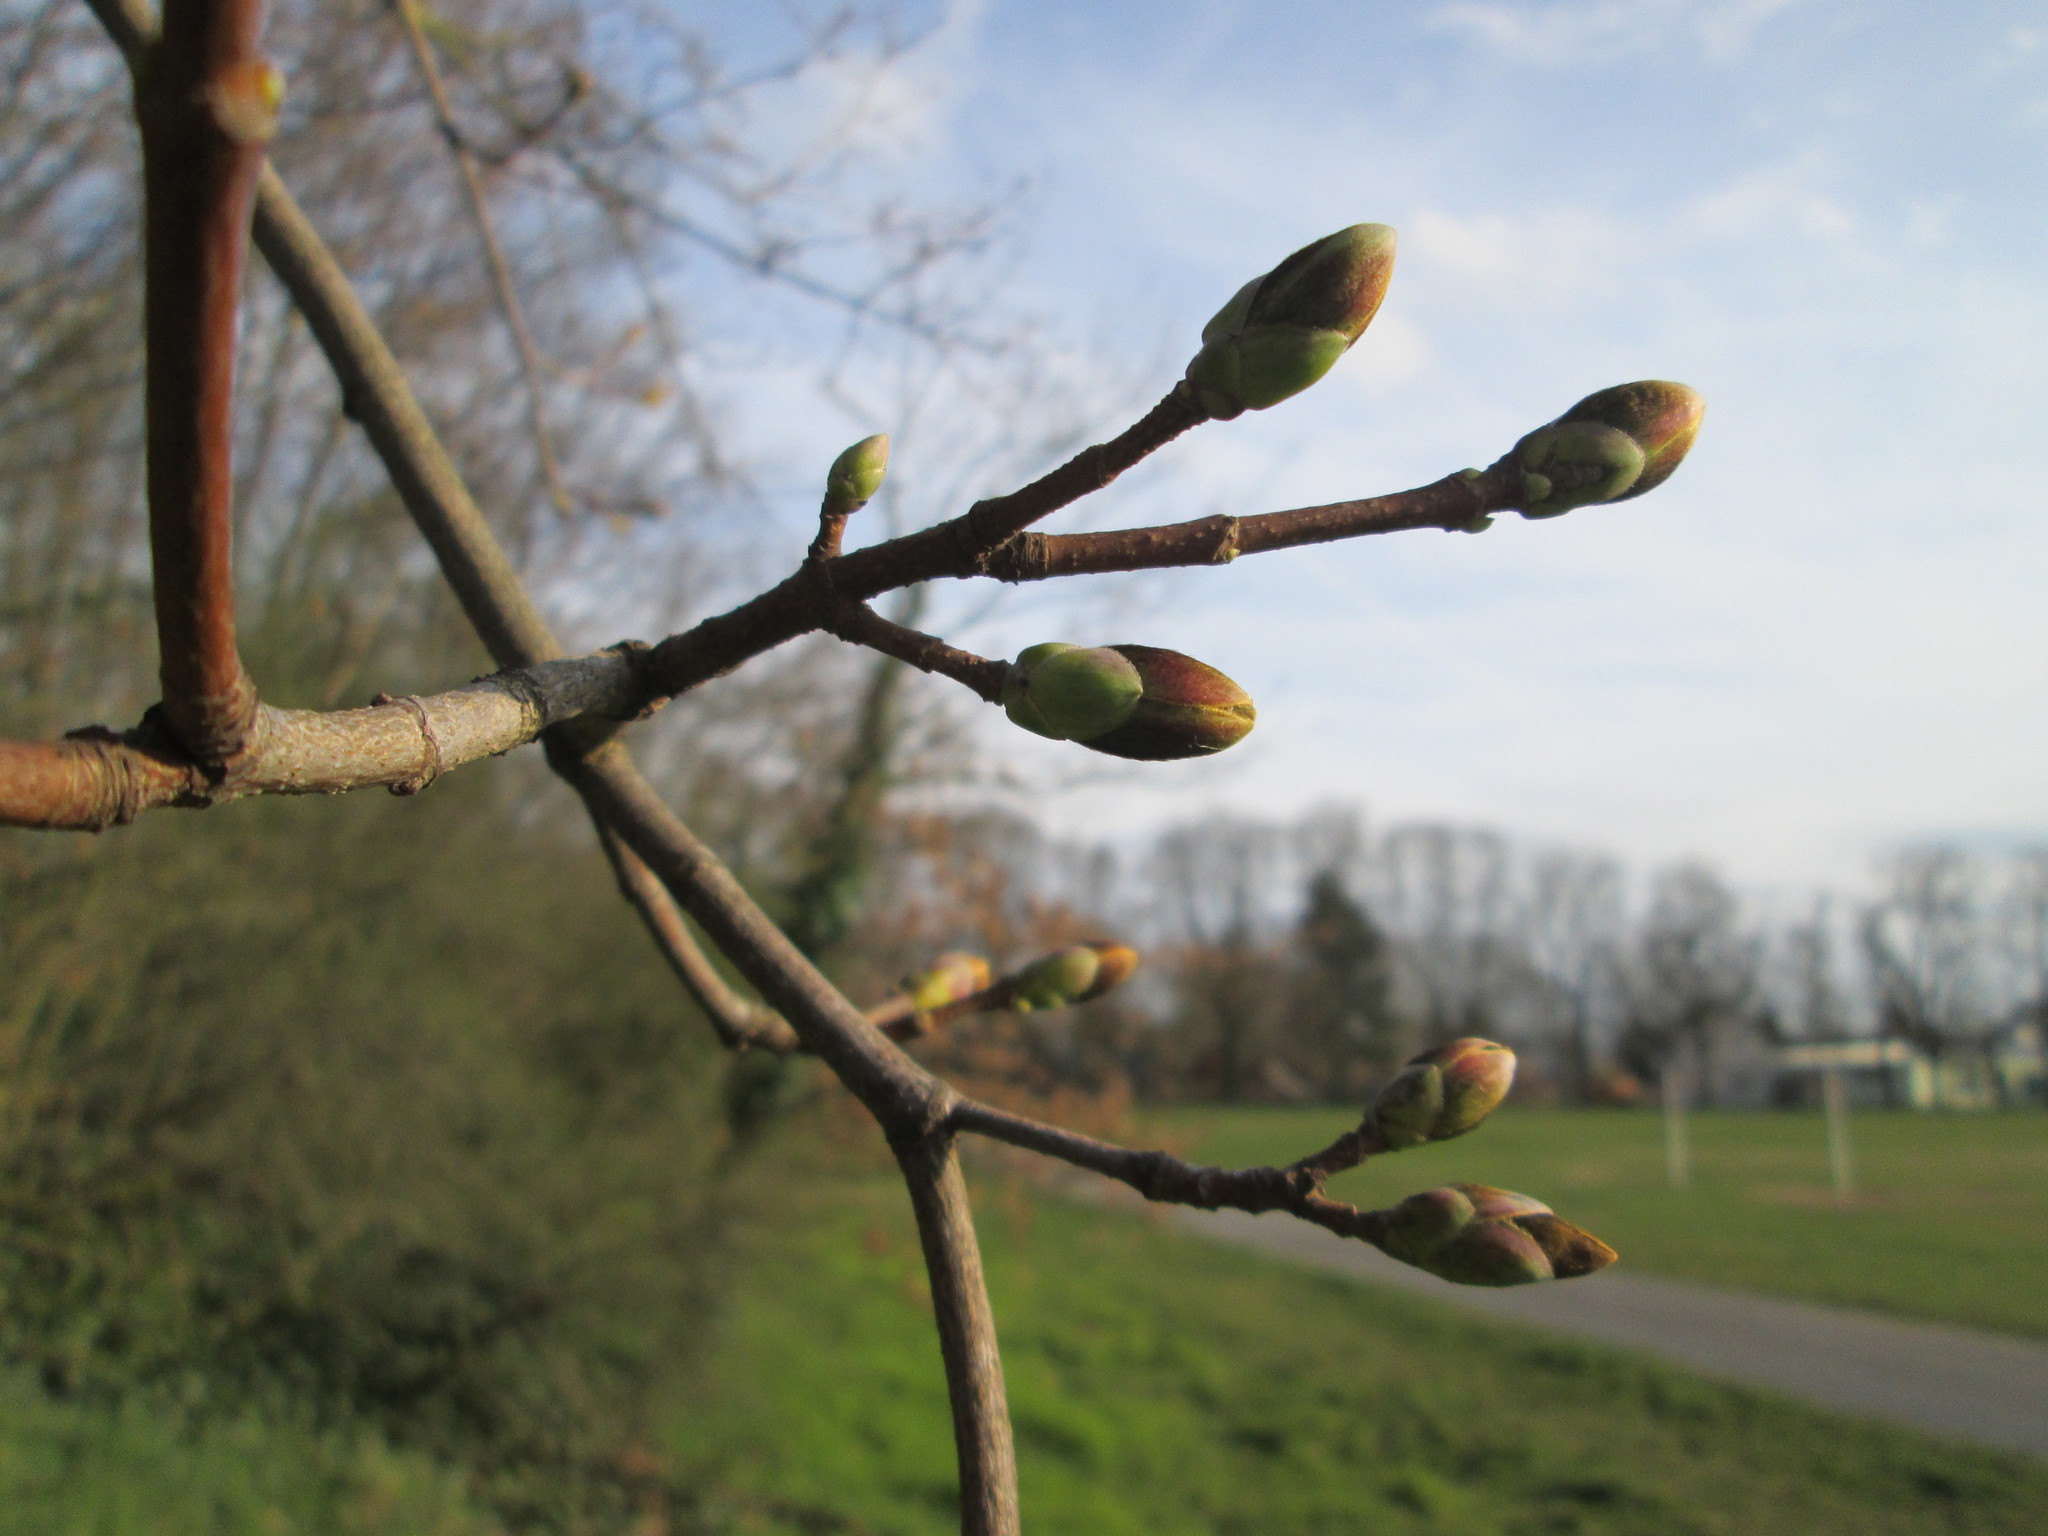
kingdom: Plantae
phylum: Tracheophyta
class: Magnoliopsida
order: Sapindales
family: Sapindaceae
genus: Acer
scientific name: Acer pseudoplatanus
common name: Sycamore
